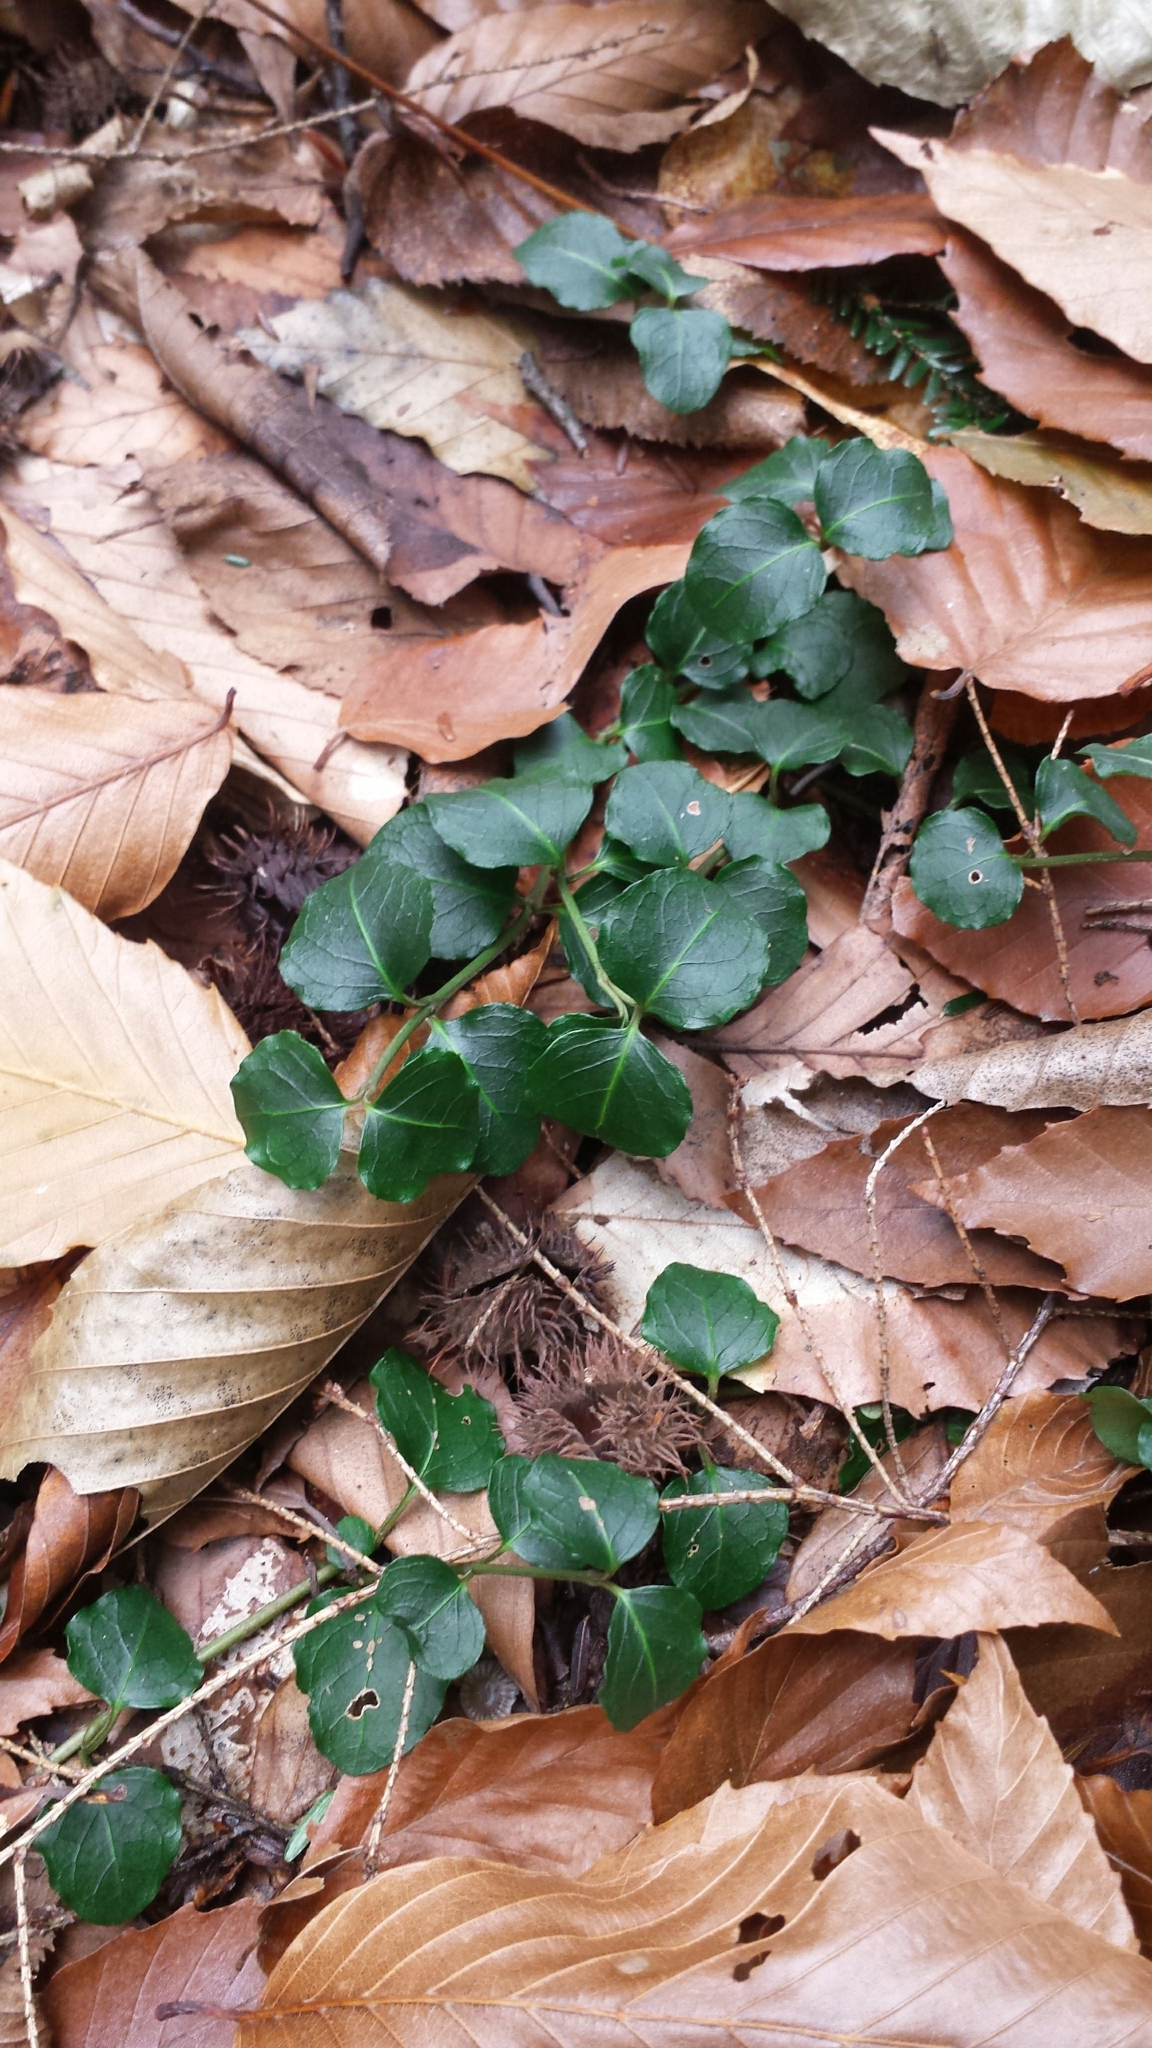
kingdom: Plantae
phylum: Tracheophyta
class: Magnoliopsida
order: Gentianales
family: Rubiaceae
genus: Mitchella
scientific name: Mitchella repens
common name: Partridge-berry
